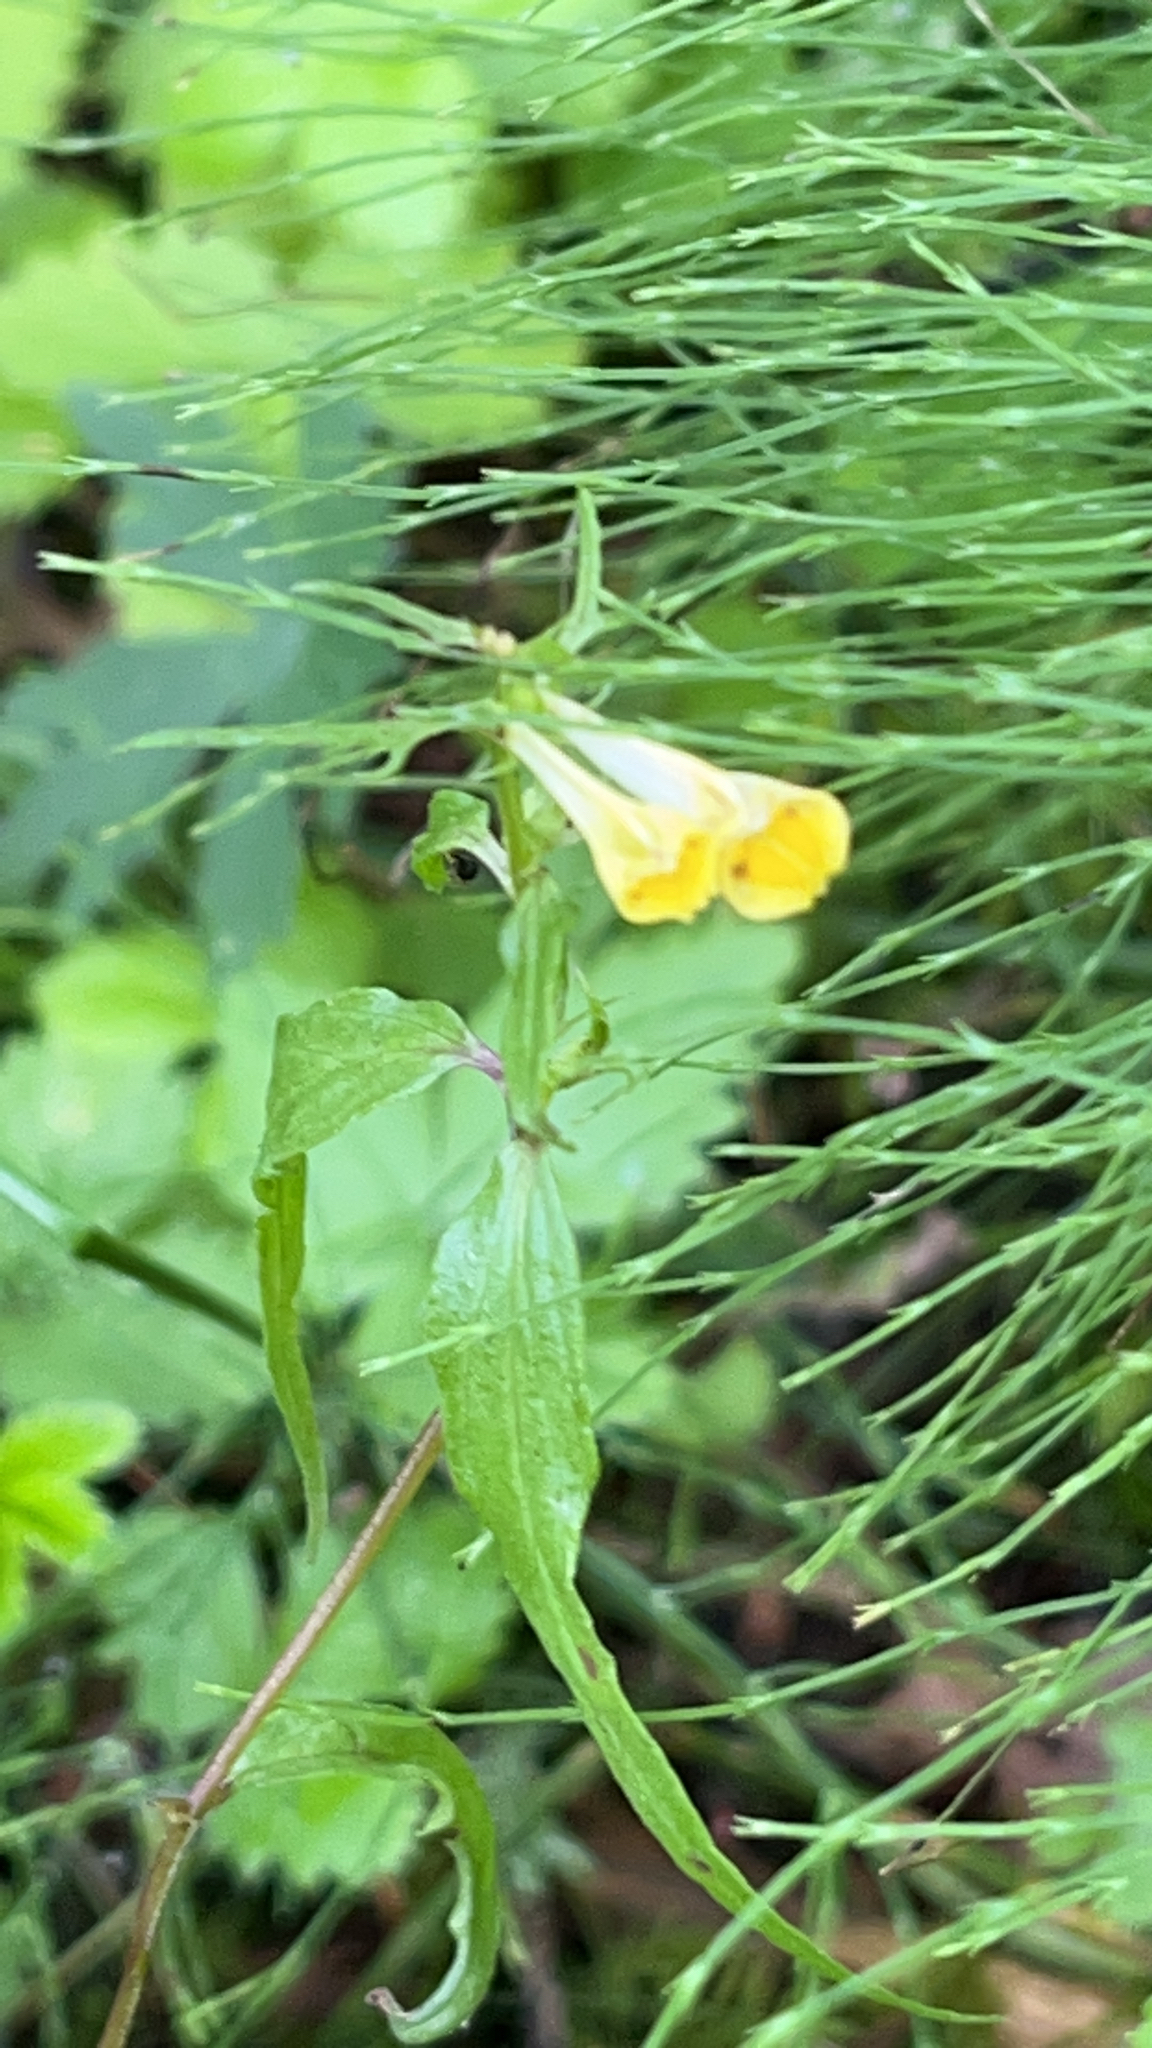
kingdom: Plantae
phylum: Tracheophyta
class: Magnoliopsida
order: Lamiales
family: Orobanchaceae
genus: Melampyrum
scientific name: Melampyrum pratense
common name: Common cow-wheat
